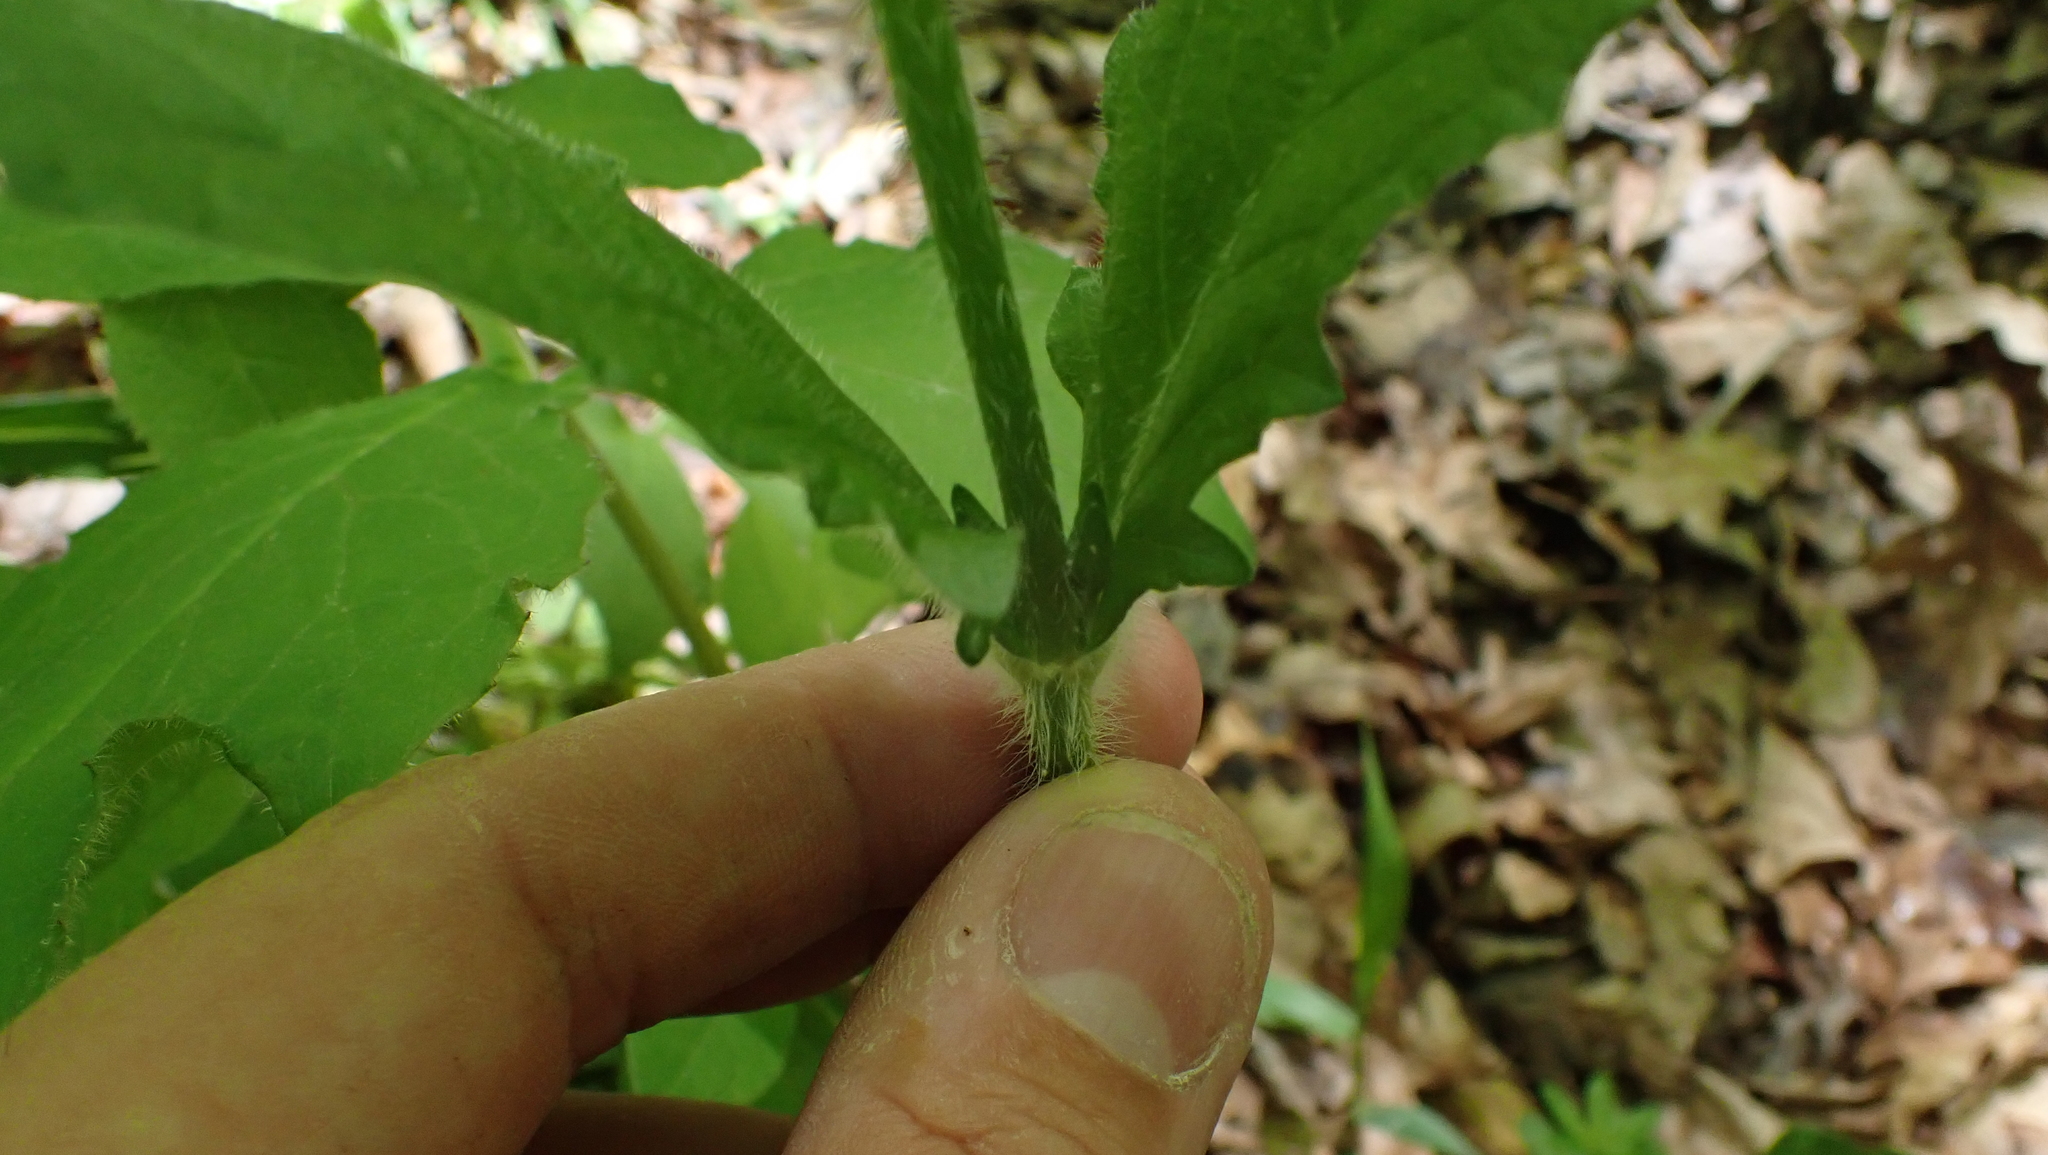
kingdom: Plantae
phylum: Tracheophyta
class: Magnoliopsida
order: Lamiales
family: Lamiaceae
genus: Salvia
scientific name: Salvia lyrata
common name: Cancerweed
